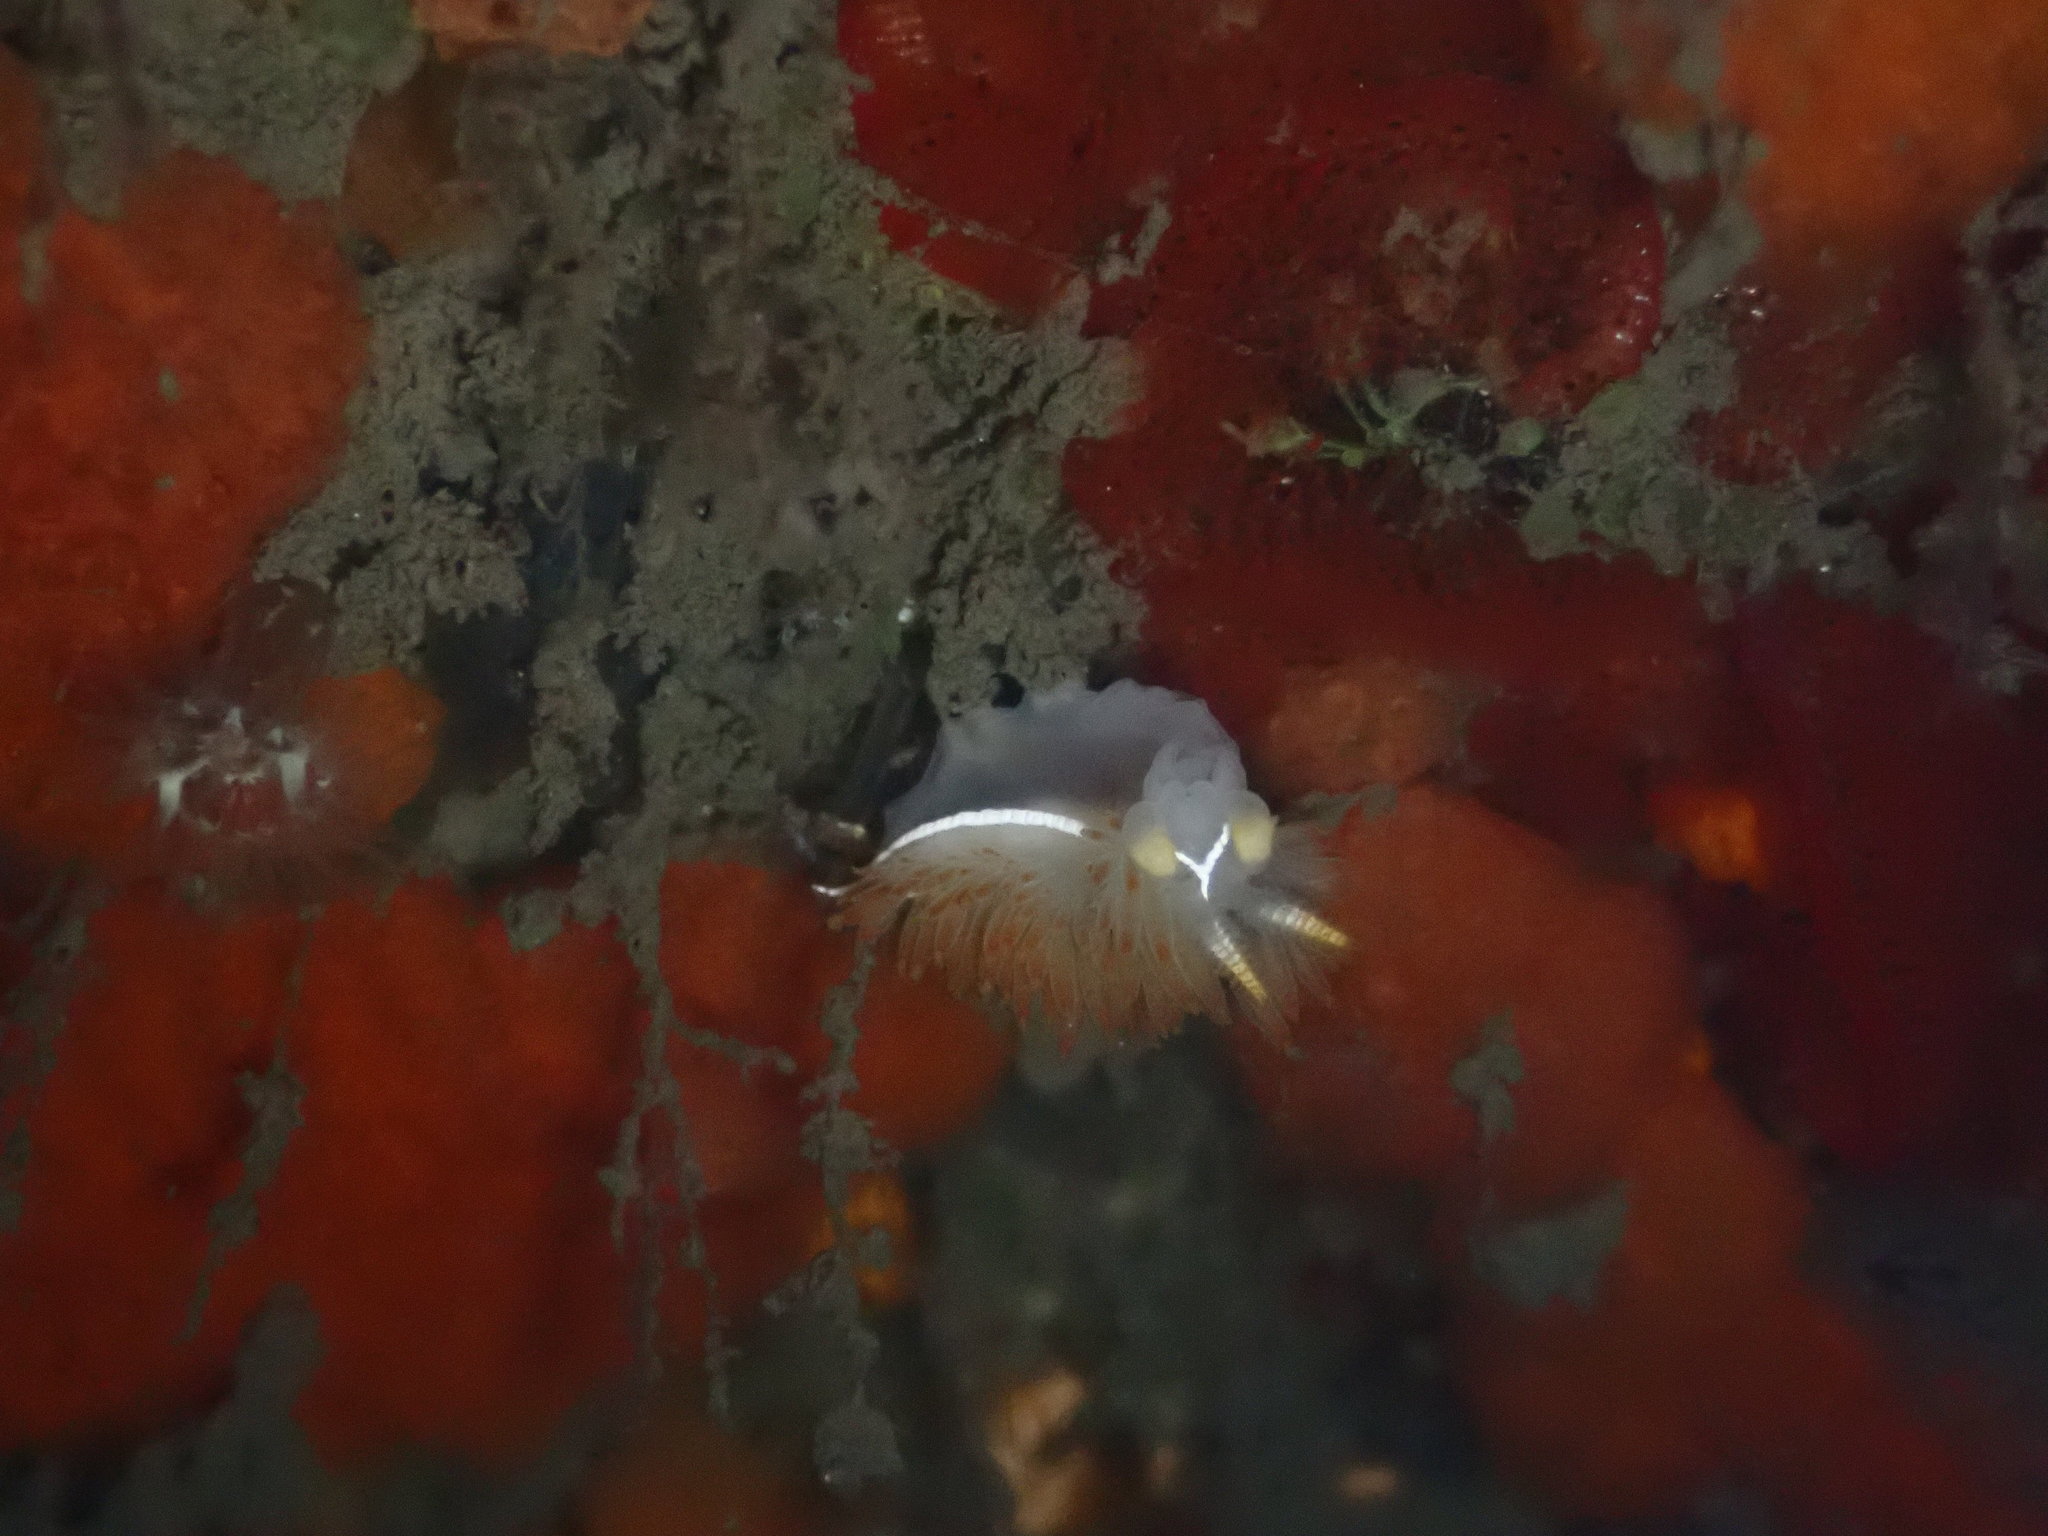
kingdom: Animalia
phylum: Mollusca
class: Gastropoda
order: Nudibranchia
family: Coryphellidae
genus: Coryphella
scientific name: Coryphella trilineata
